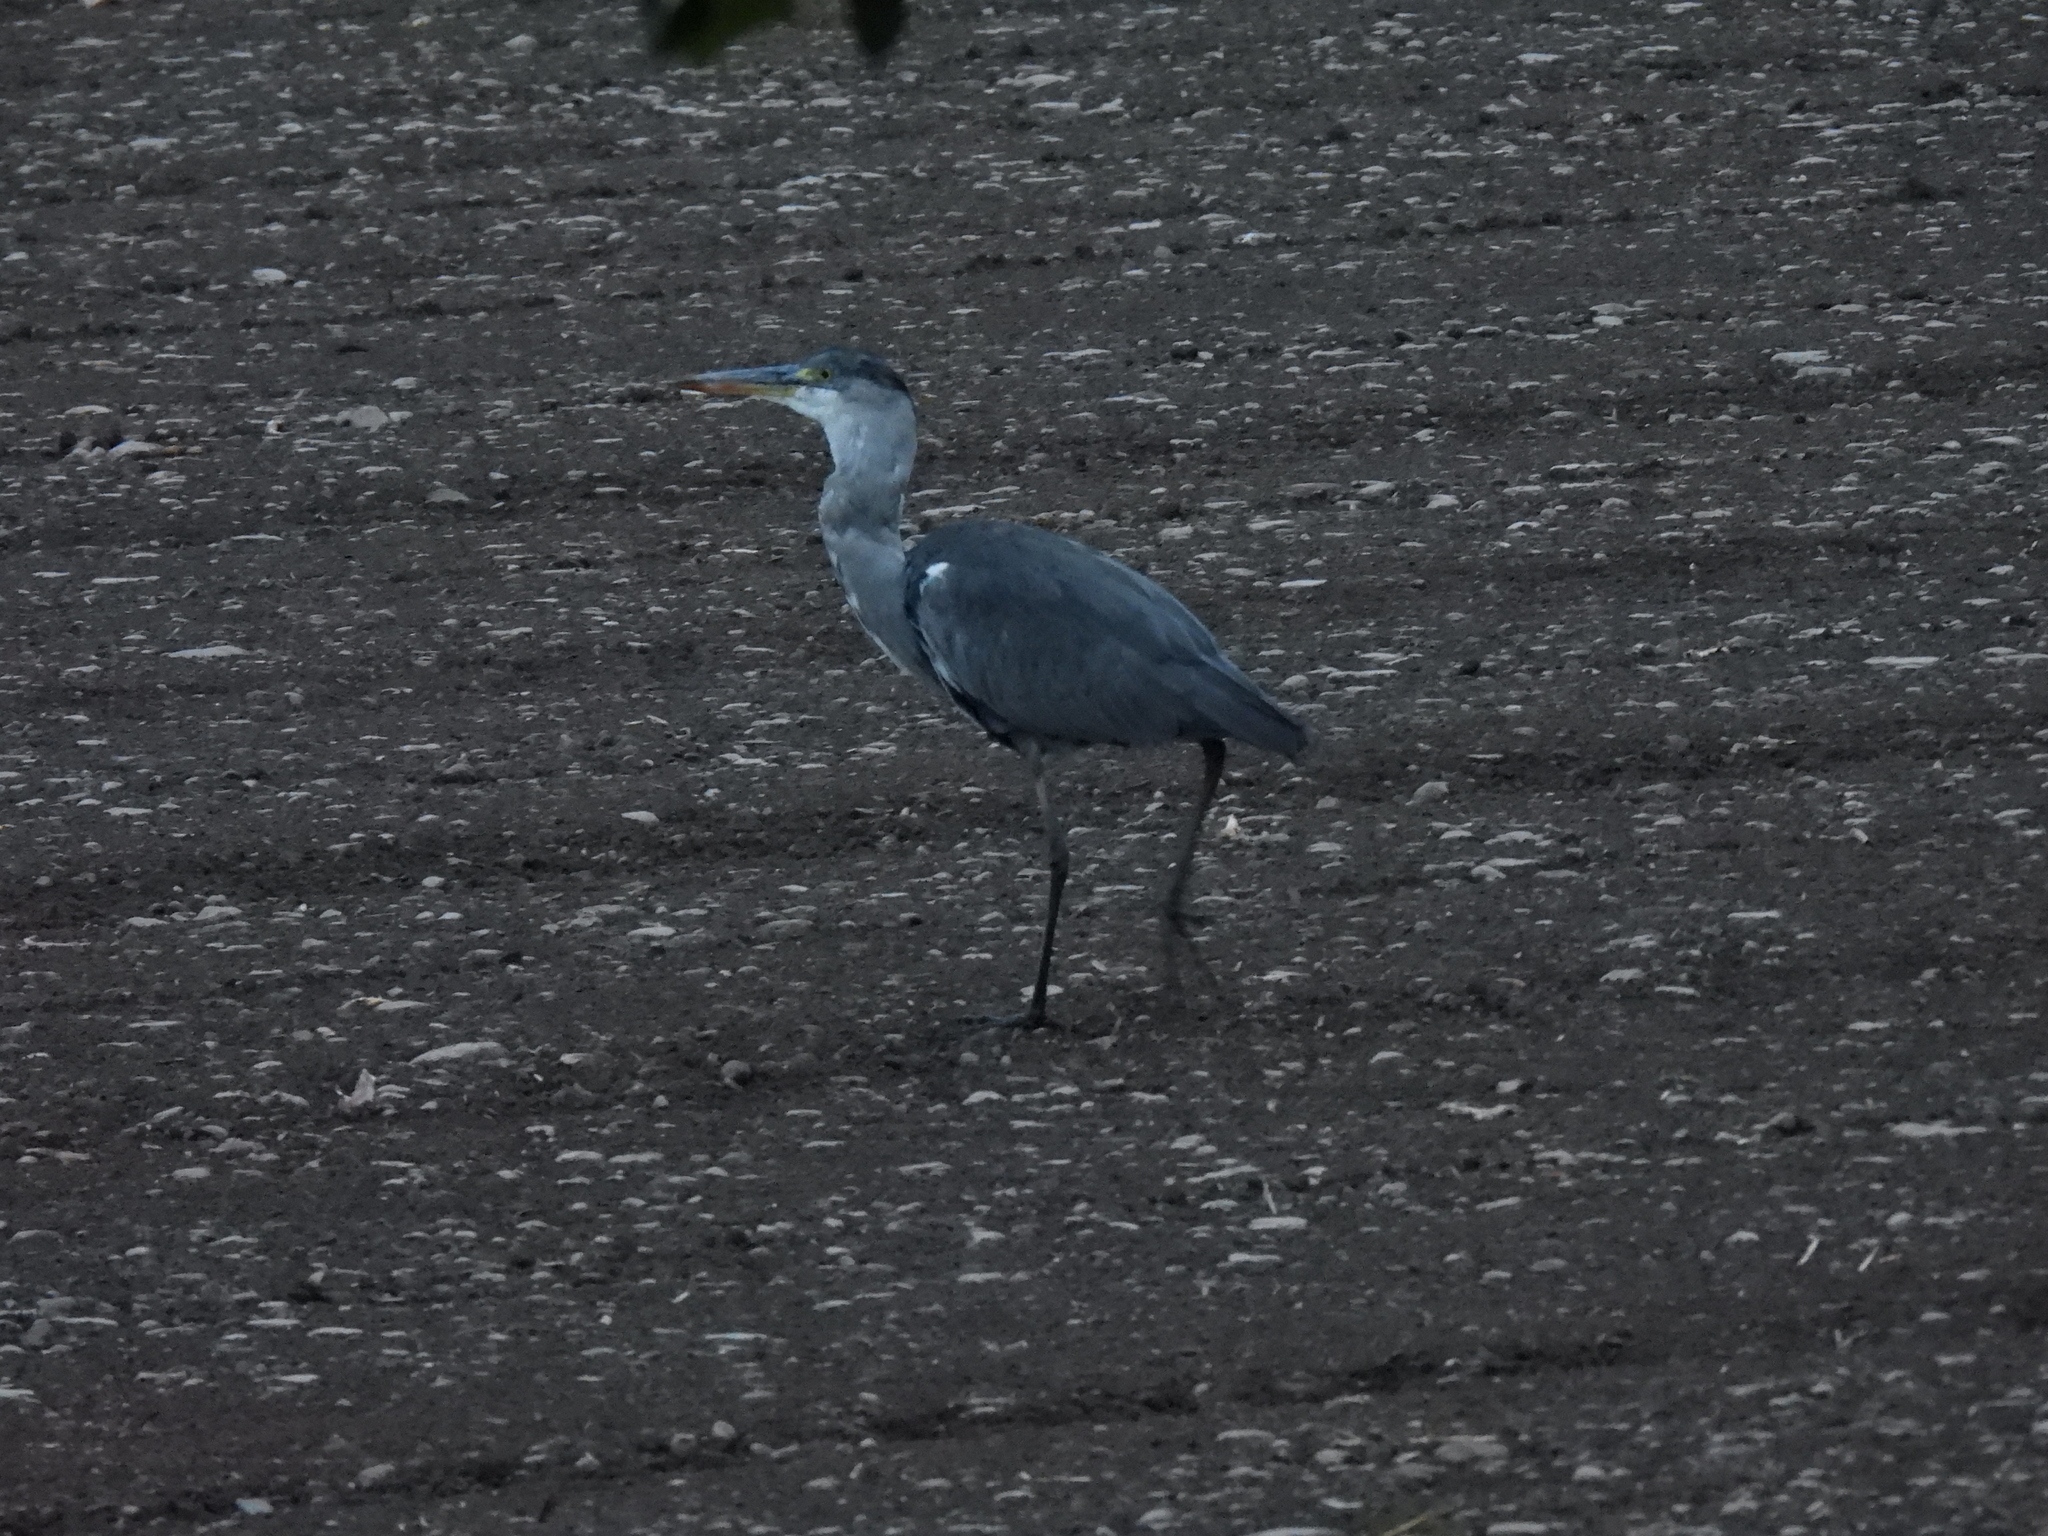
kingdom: Animalia
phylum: Chordata
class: Aves
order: Pelecaniformes
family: Ardeidae
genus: Ardea
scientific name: Ardea cinerea
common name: Grey heron
